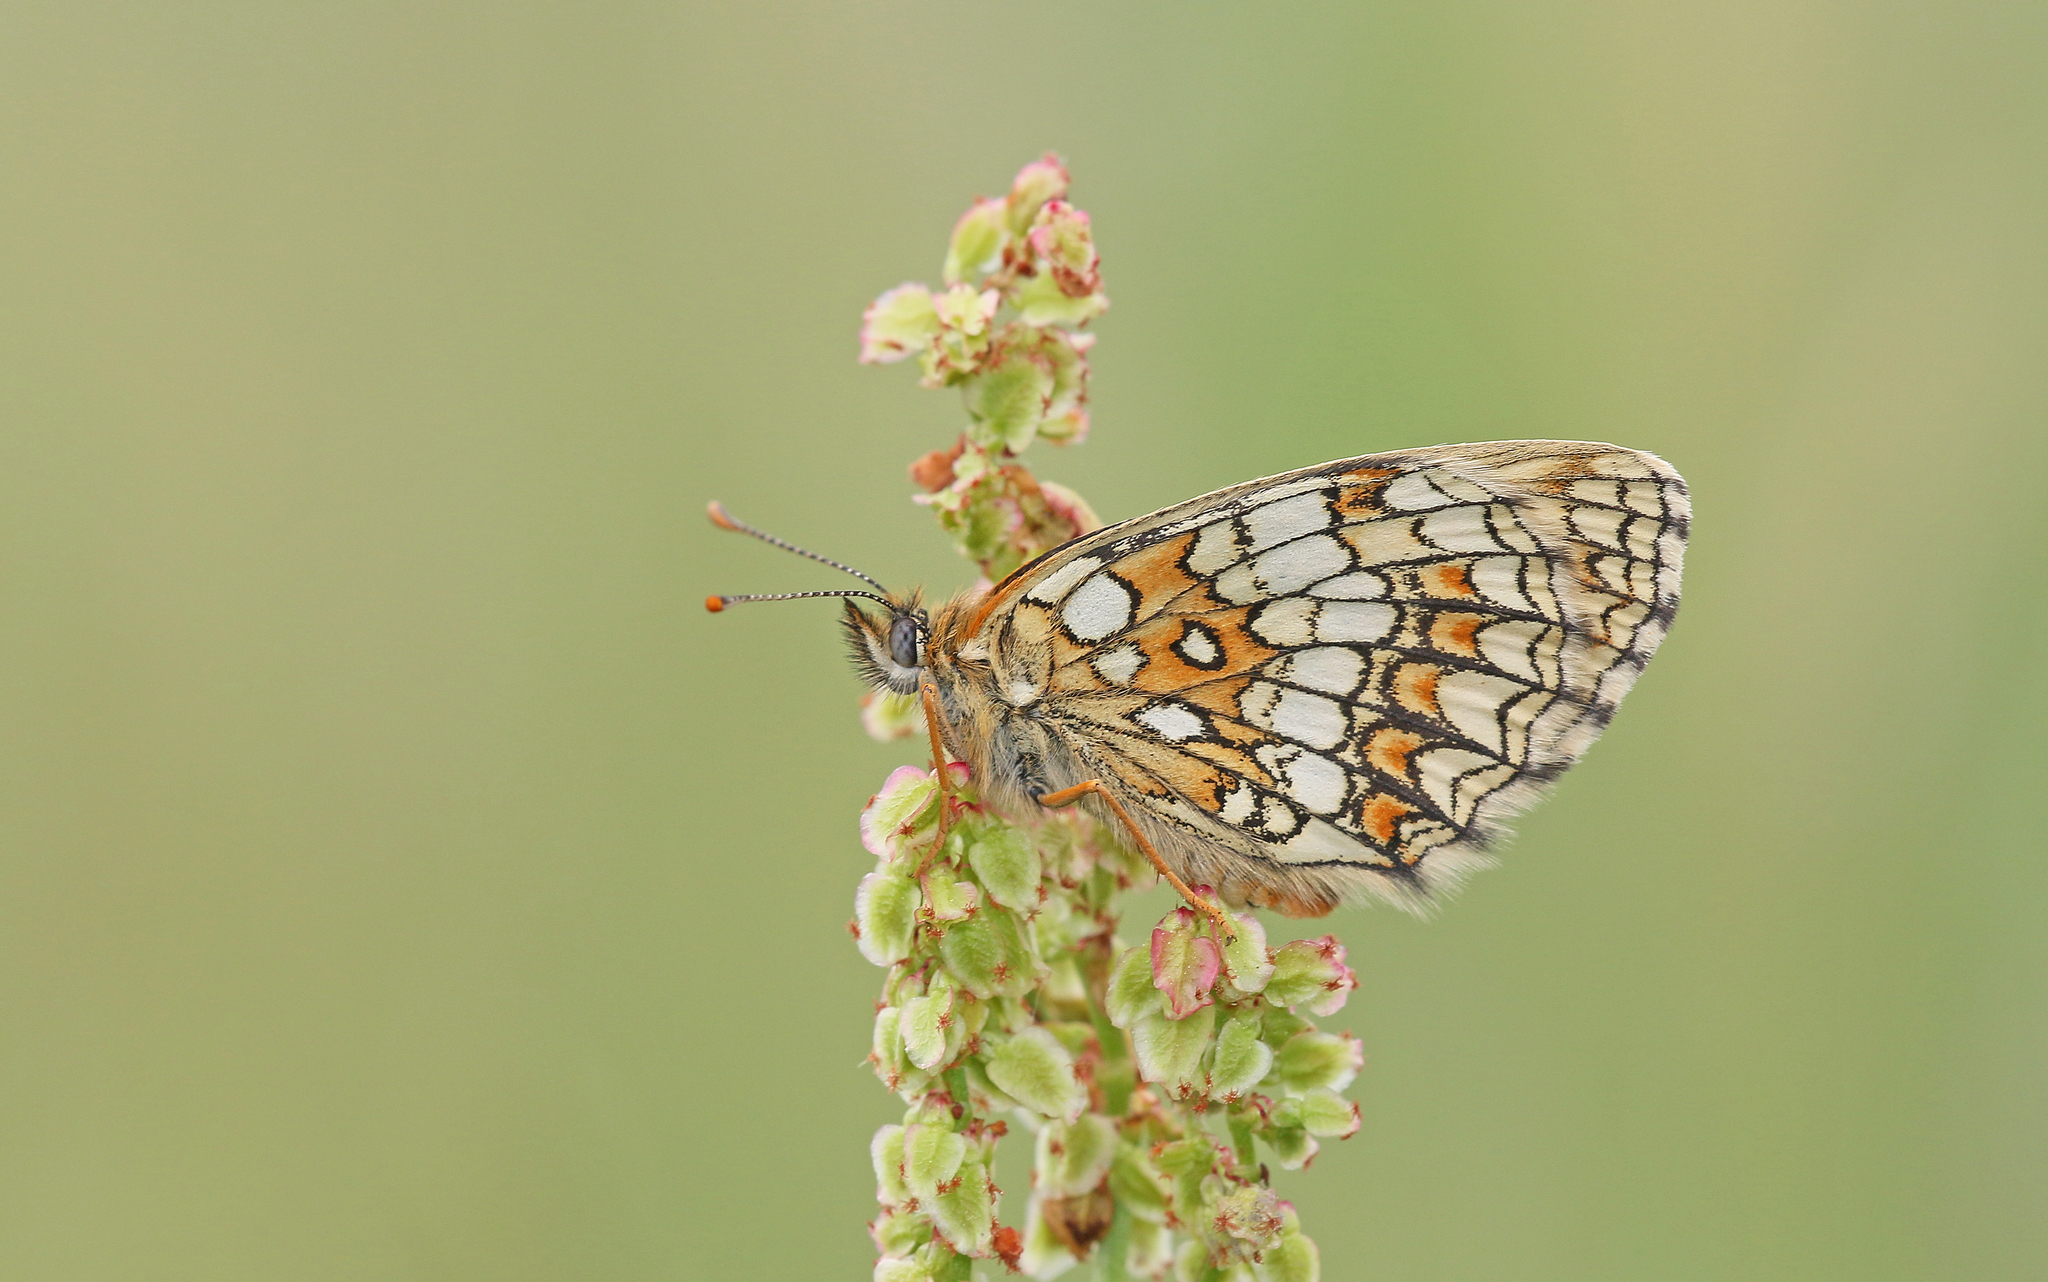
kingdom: Animalia
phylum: Arthropoda
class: Insecta
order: Lepidoptera
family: Nymphalidae
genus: Melitaea
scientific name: Melitaea athalia
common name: Heath fritillary
